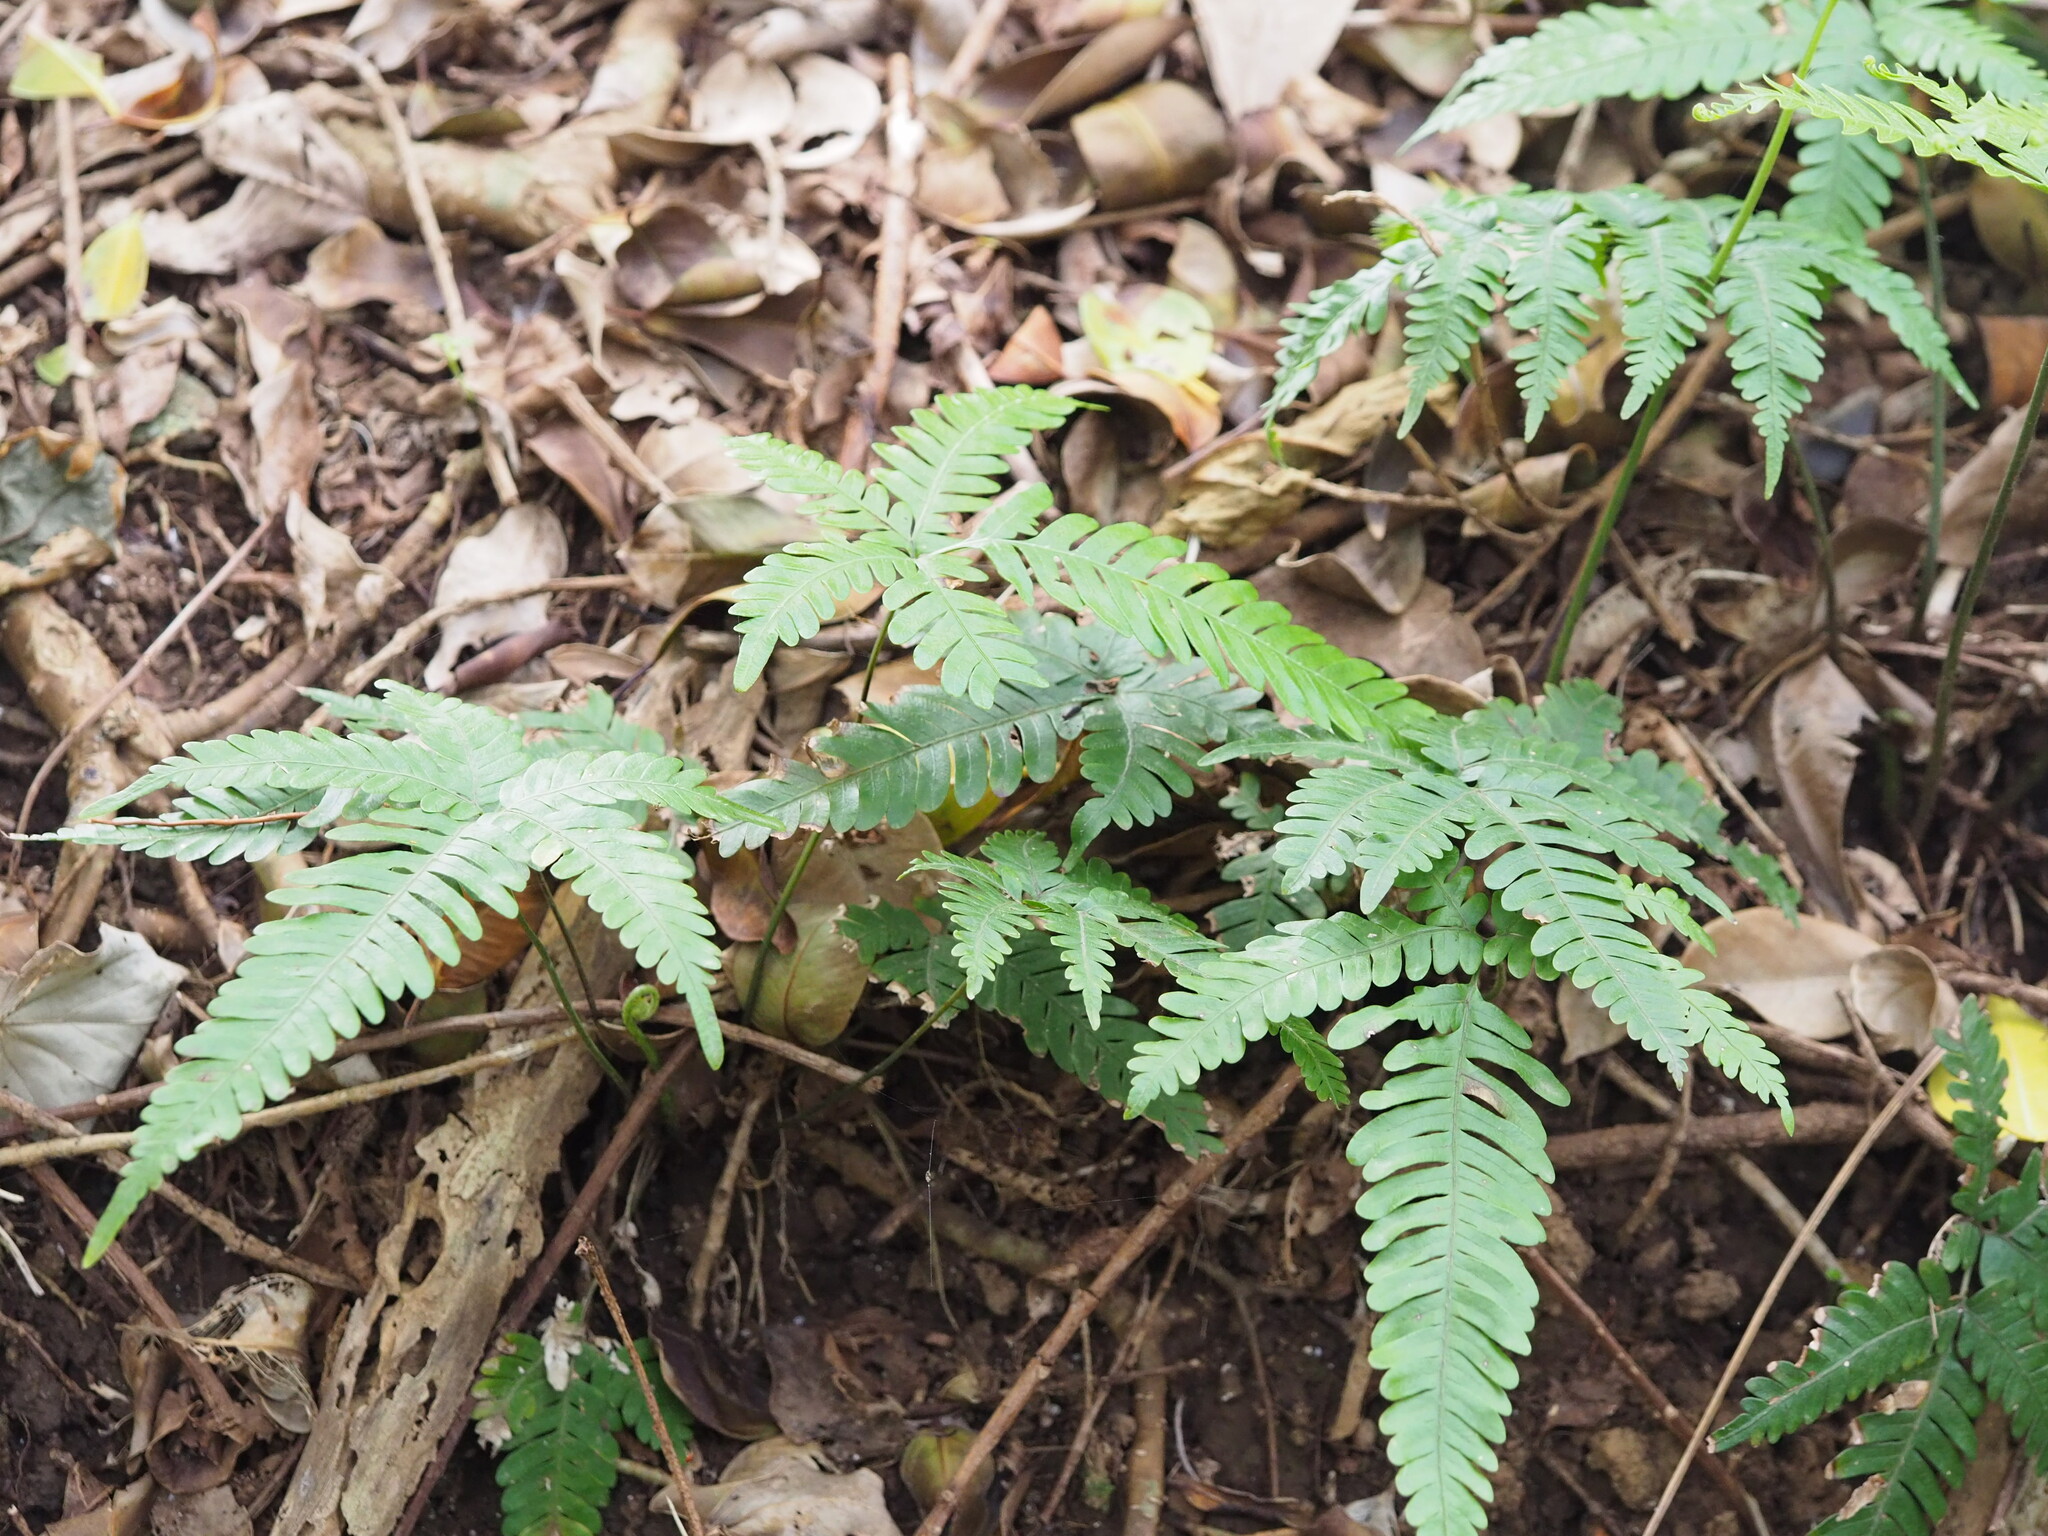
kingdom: Plantae
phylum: Tracheophyta
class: Polypodiopsida
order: Polypodiales
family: Pteridaceae
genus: Pteris
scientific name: Pteris fauriei
